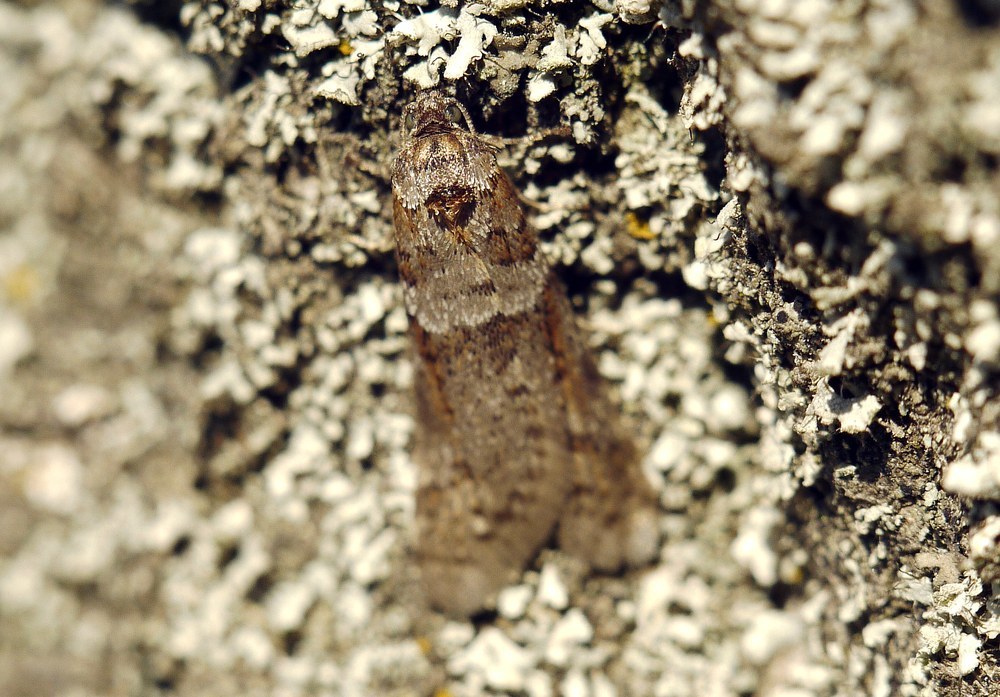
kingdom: Animalia
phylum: Arthropoda
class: Insecta
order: Lepidoptera
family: Tortricidae
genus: Tortricodes
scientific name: Tortricodes alternella
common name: Winter shade
